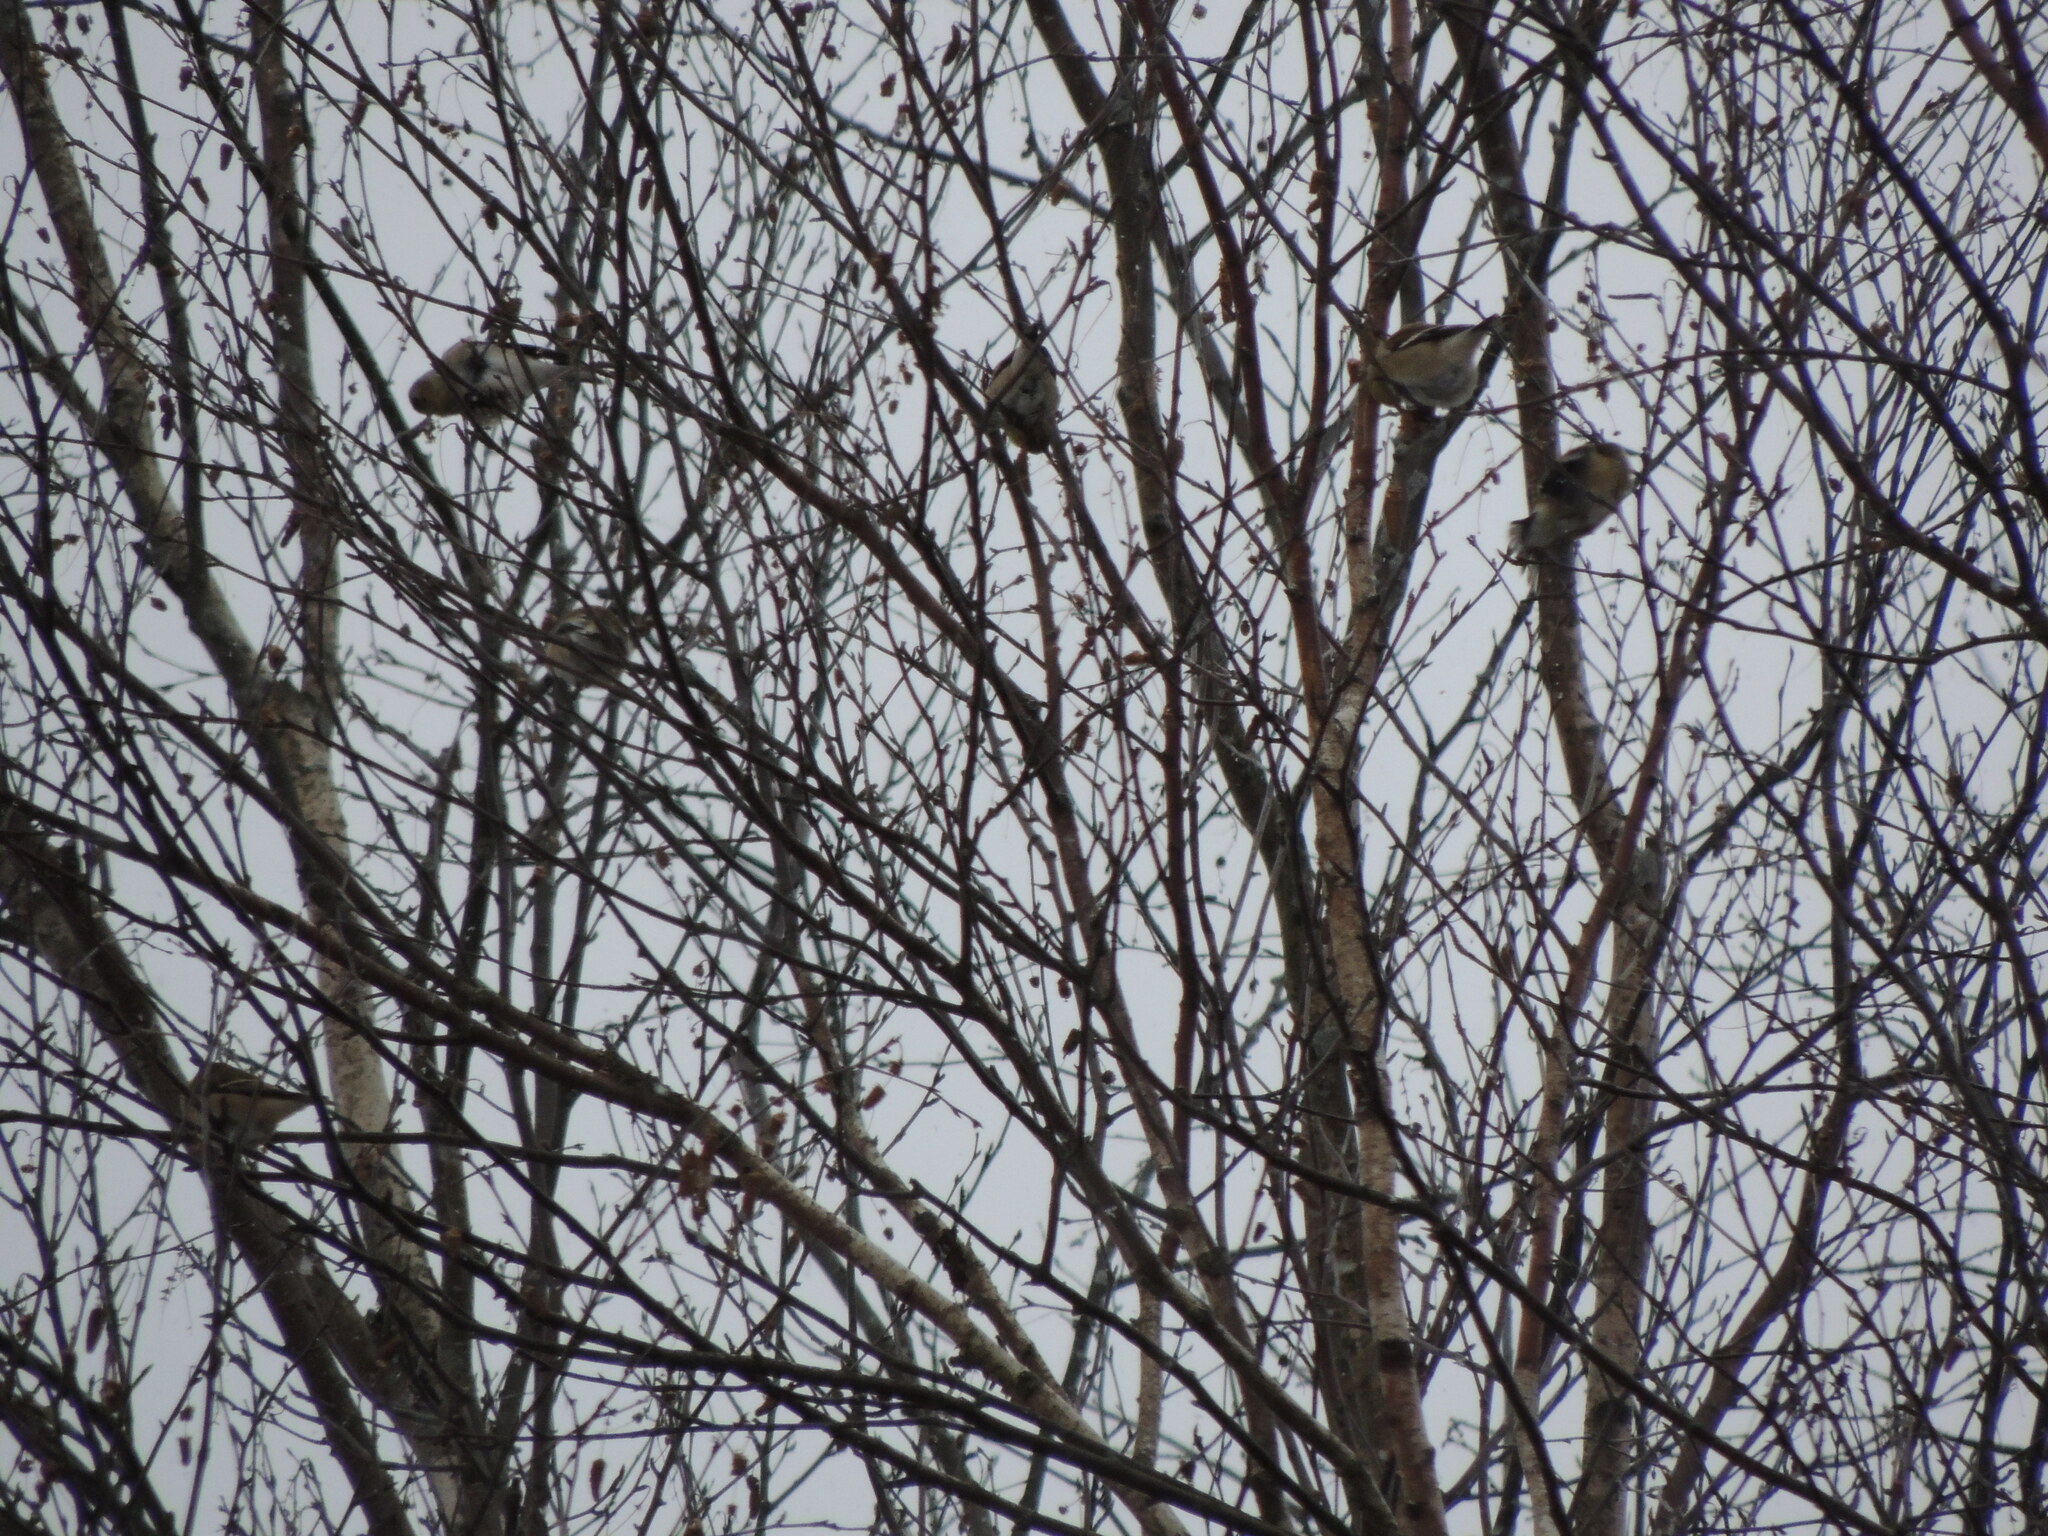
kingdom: Animalia
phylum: Chordata
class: Aves
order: Passeriformes
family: Fringillidae
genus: Spinus
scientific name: Spinus tristis
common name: American goldfinch
